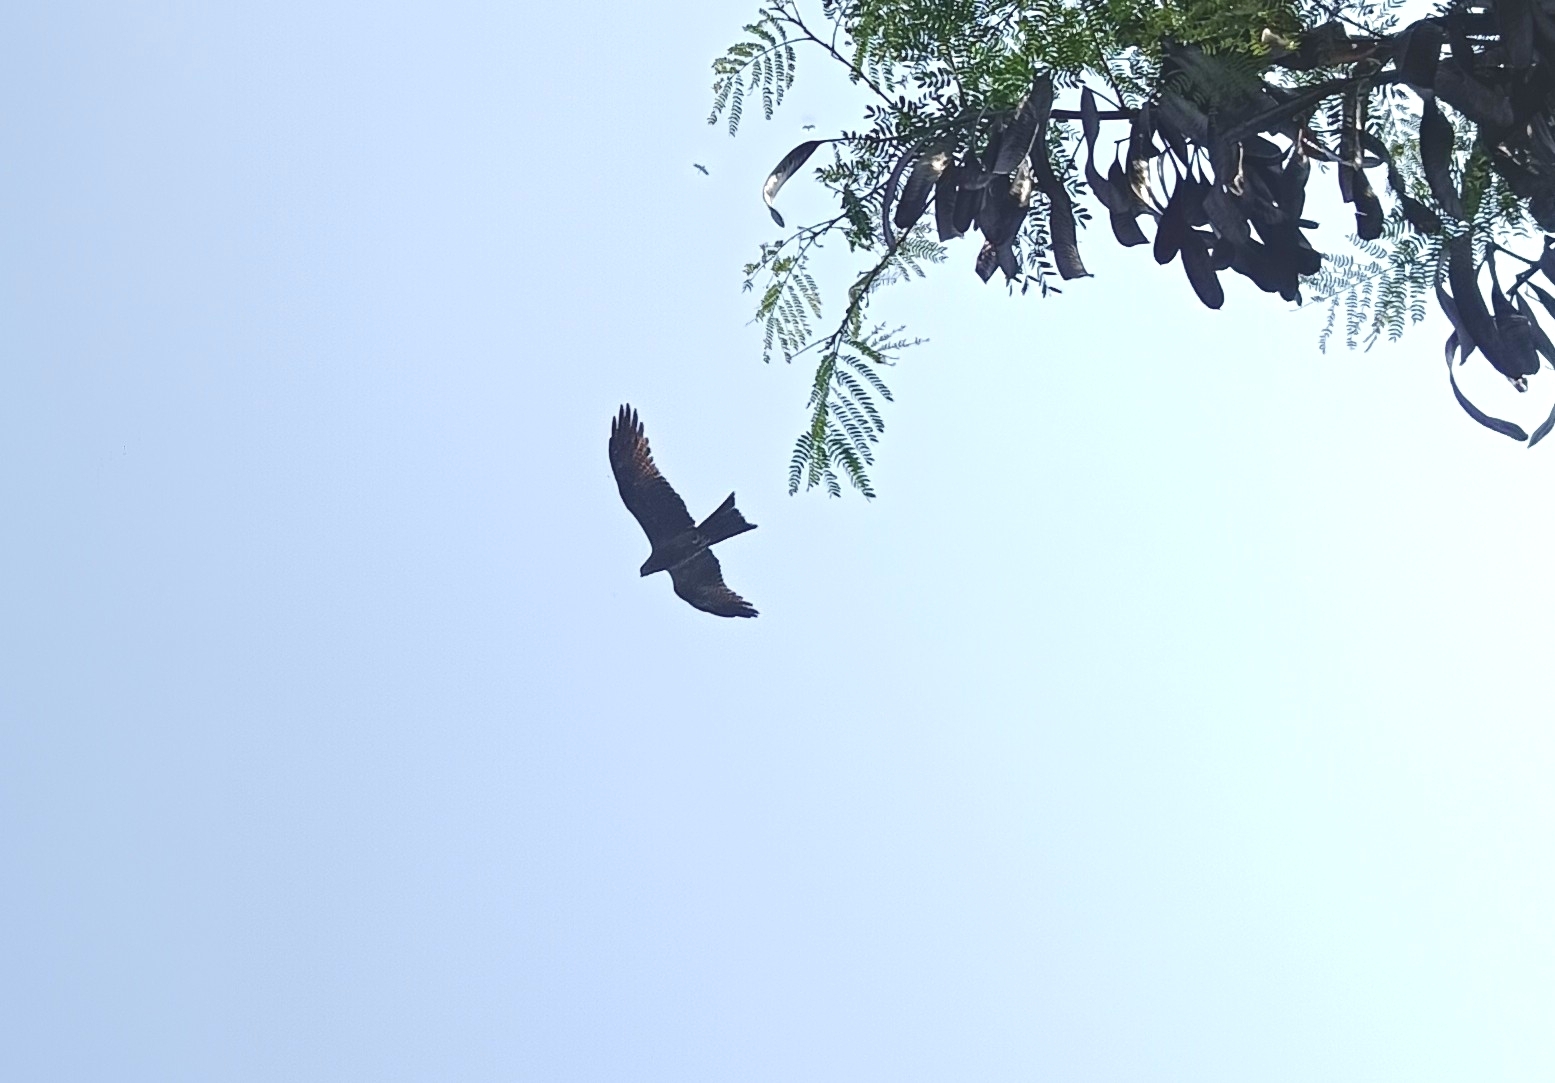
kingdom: Animalia
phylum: Chordata
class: Aves
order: Accipitriformes
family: Accipitridae
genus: Milvus
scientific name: Milvus migrans
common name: Black kite
